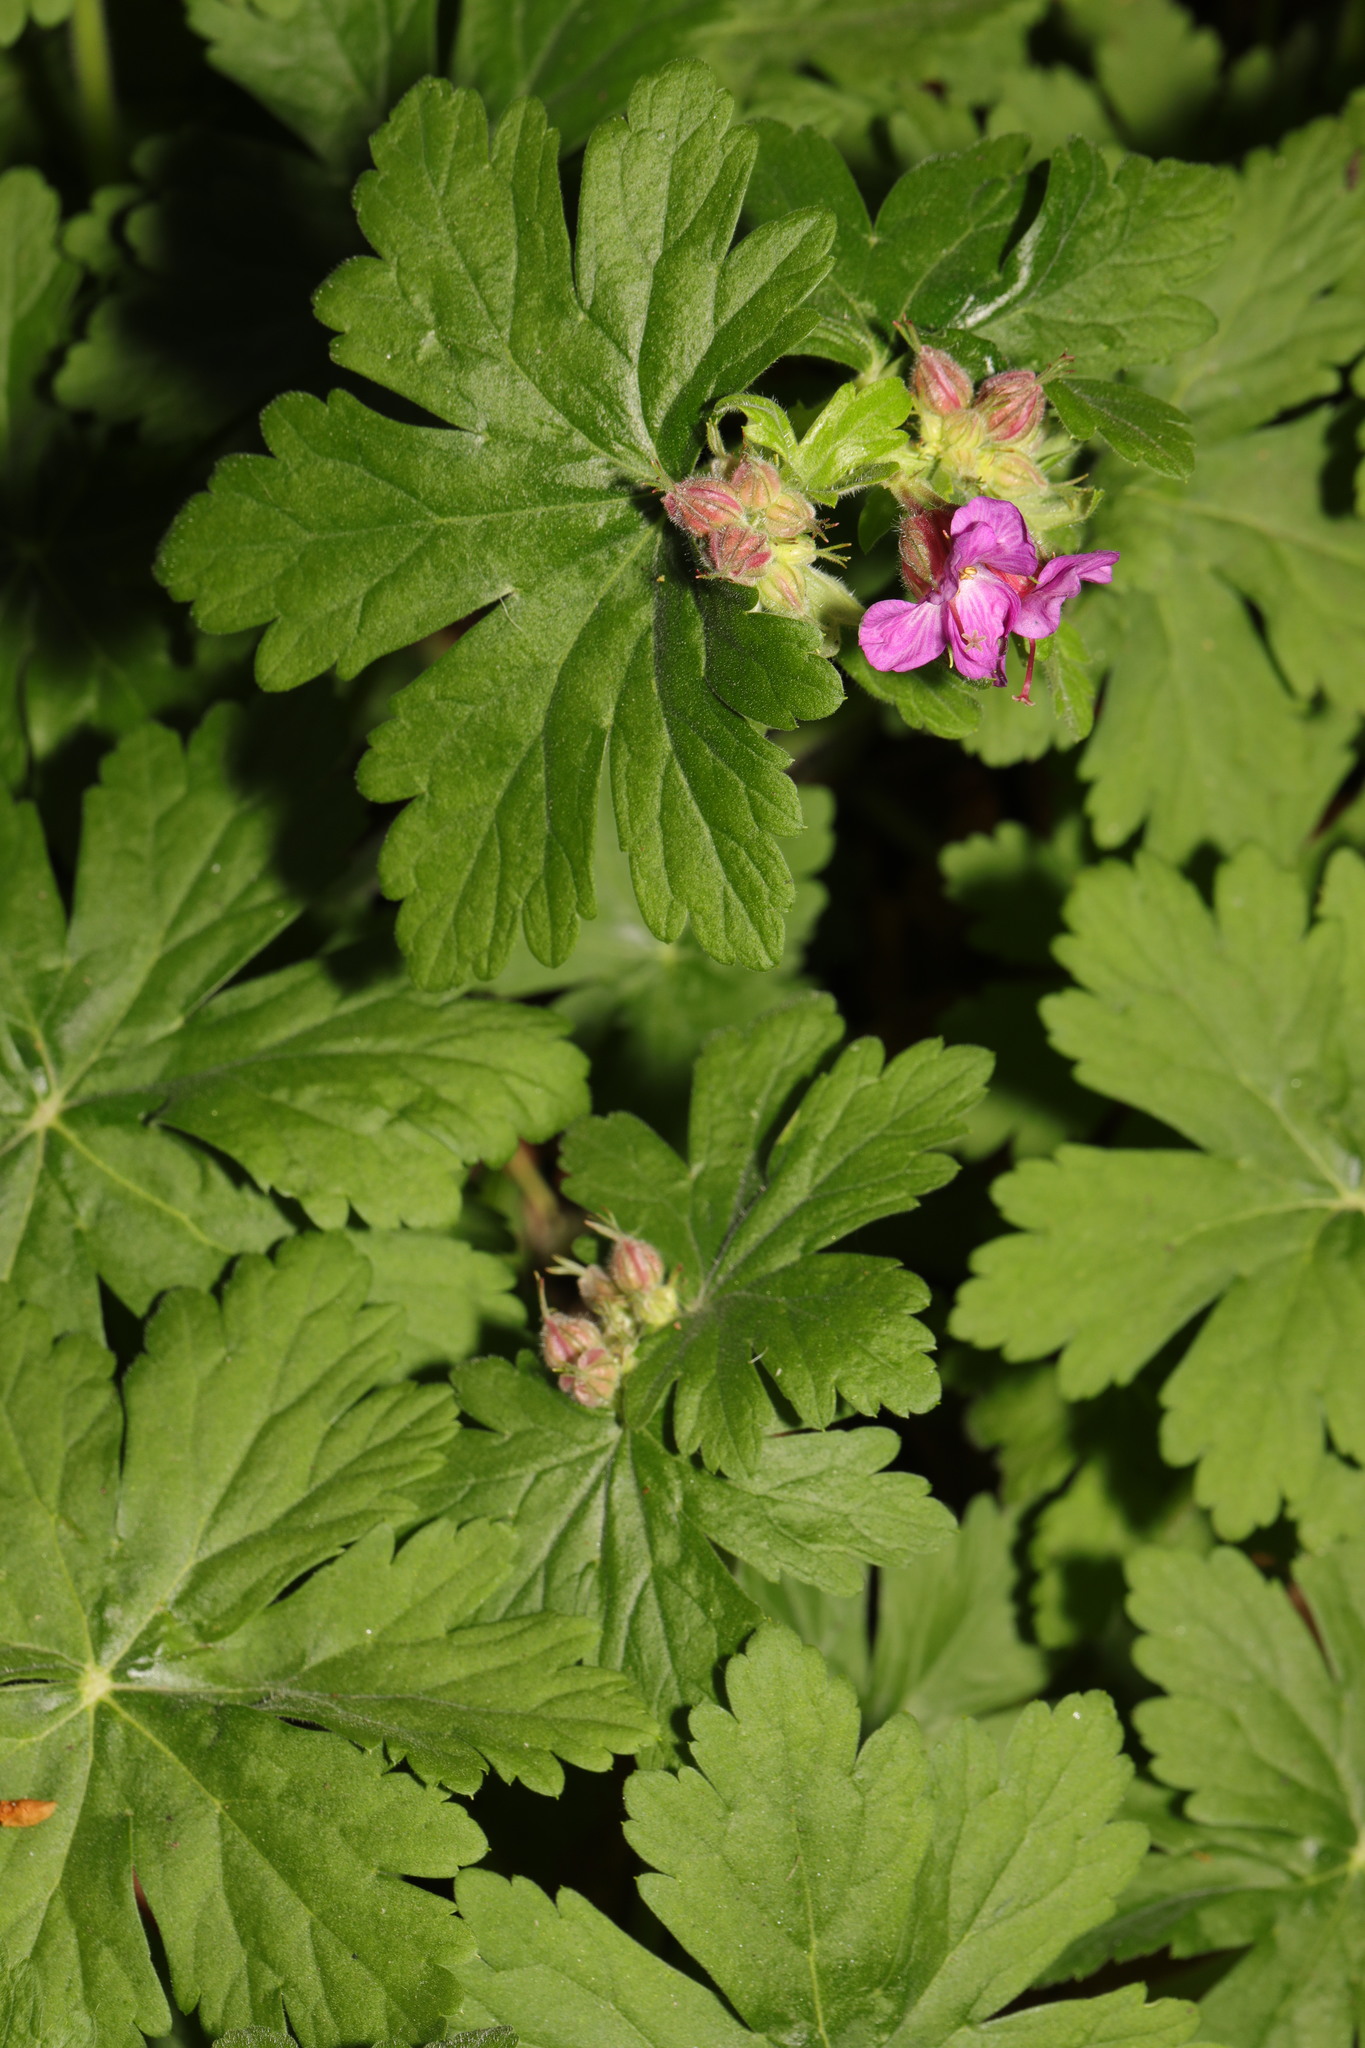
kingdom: Plantae
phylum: Tracheophyta
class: Magnoliopsida
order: Geraniales
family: Geraniaceae
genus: Geranium
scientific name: Geranium macrorrhizum
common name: Rock crane's-bill
